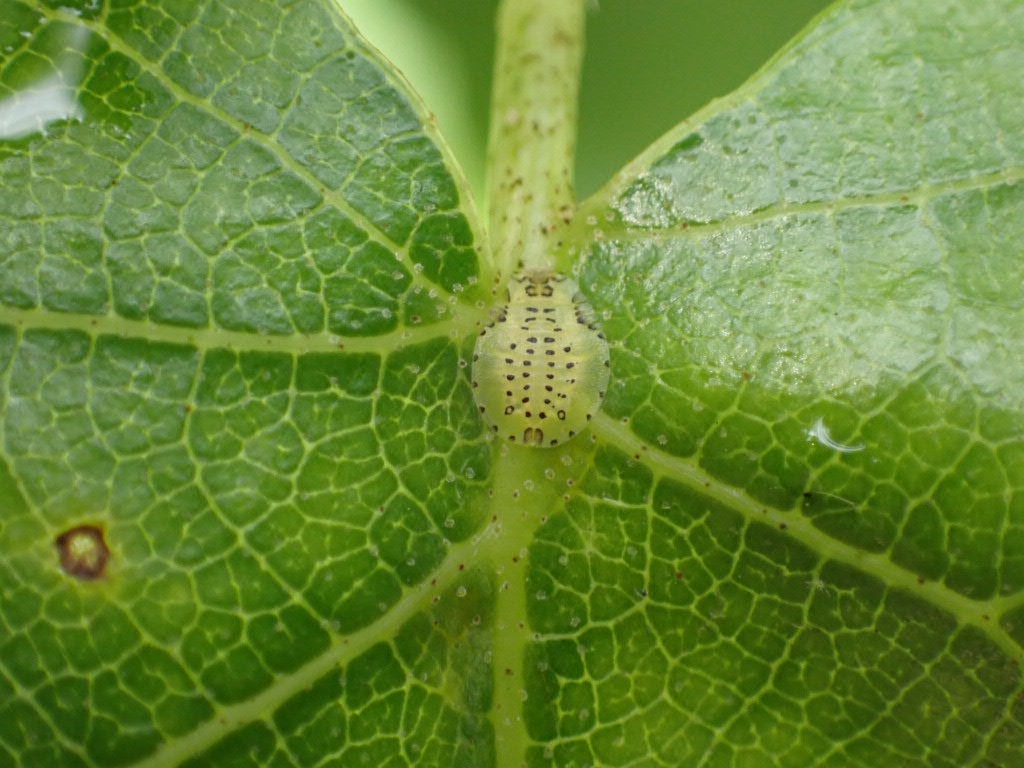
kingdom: Animalia
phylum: Arthropoda
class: Insecta
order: Hemiptera
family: Aphididae
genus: Crypturaphis
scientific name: Crypturaphis grassii
